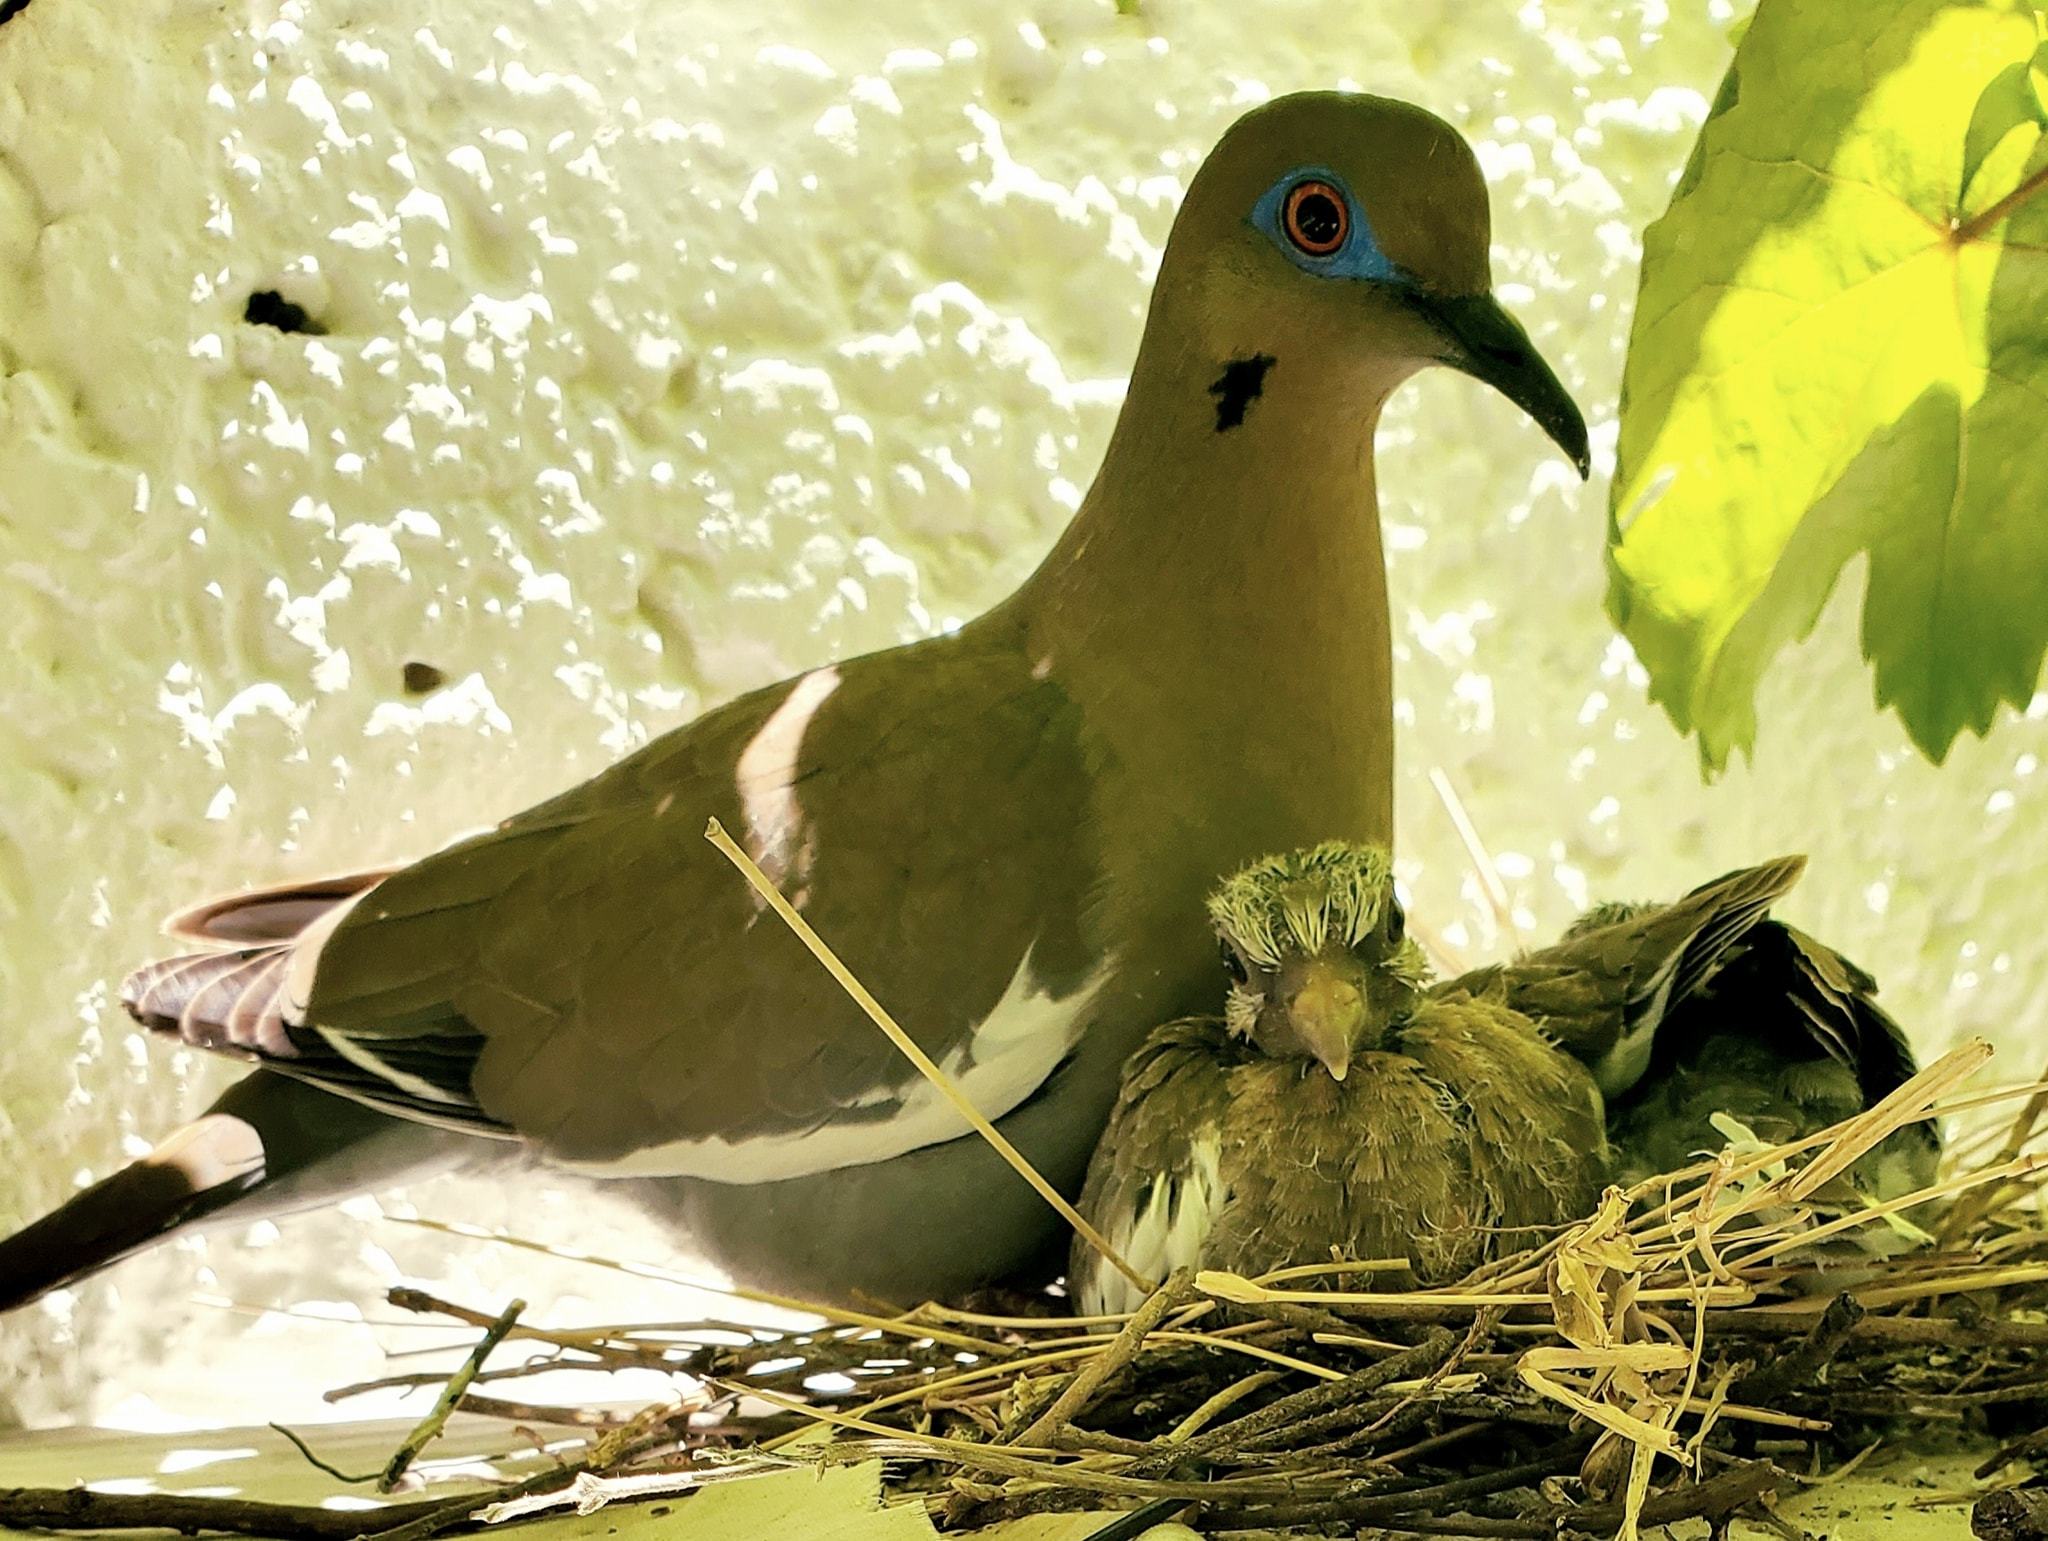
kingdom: Animalia
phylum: Chordata
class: Aves
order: Columbiformes
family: Columbidae
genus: Zenaida
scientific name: Zenaida asiatica
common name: White-winged dove
